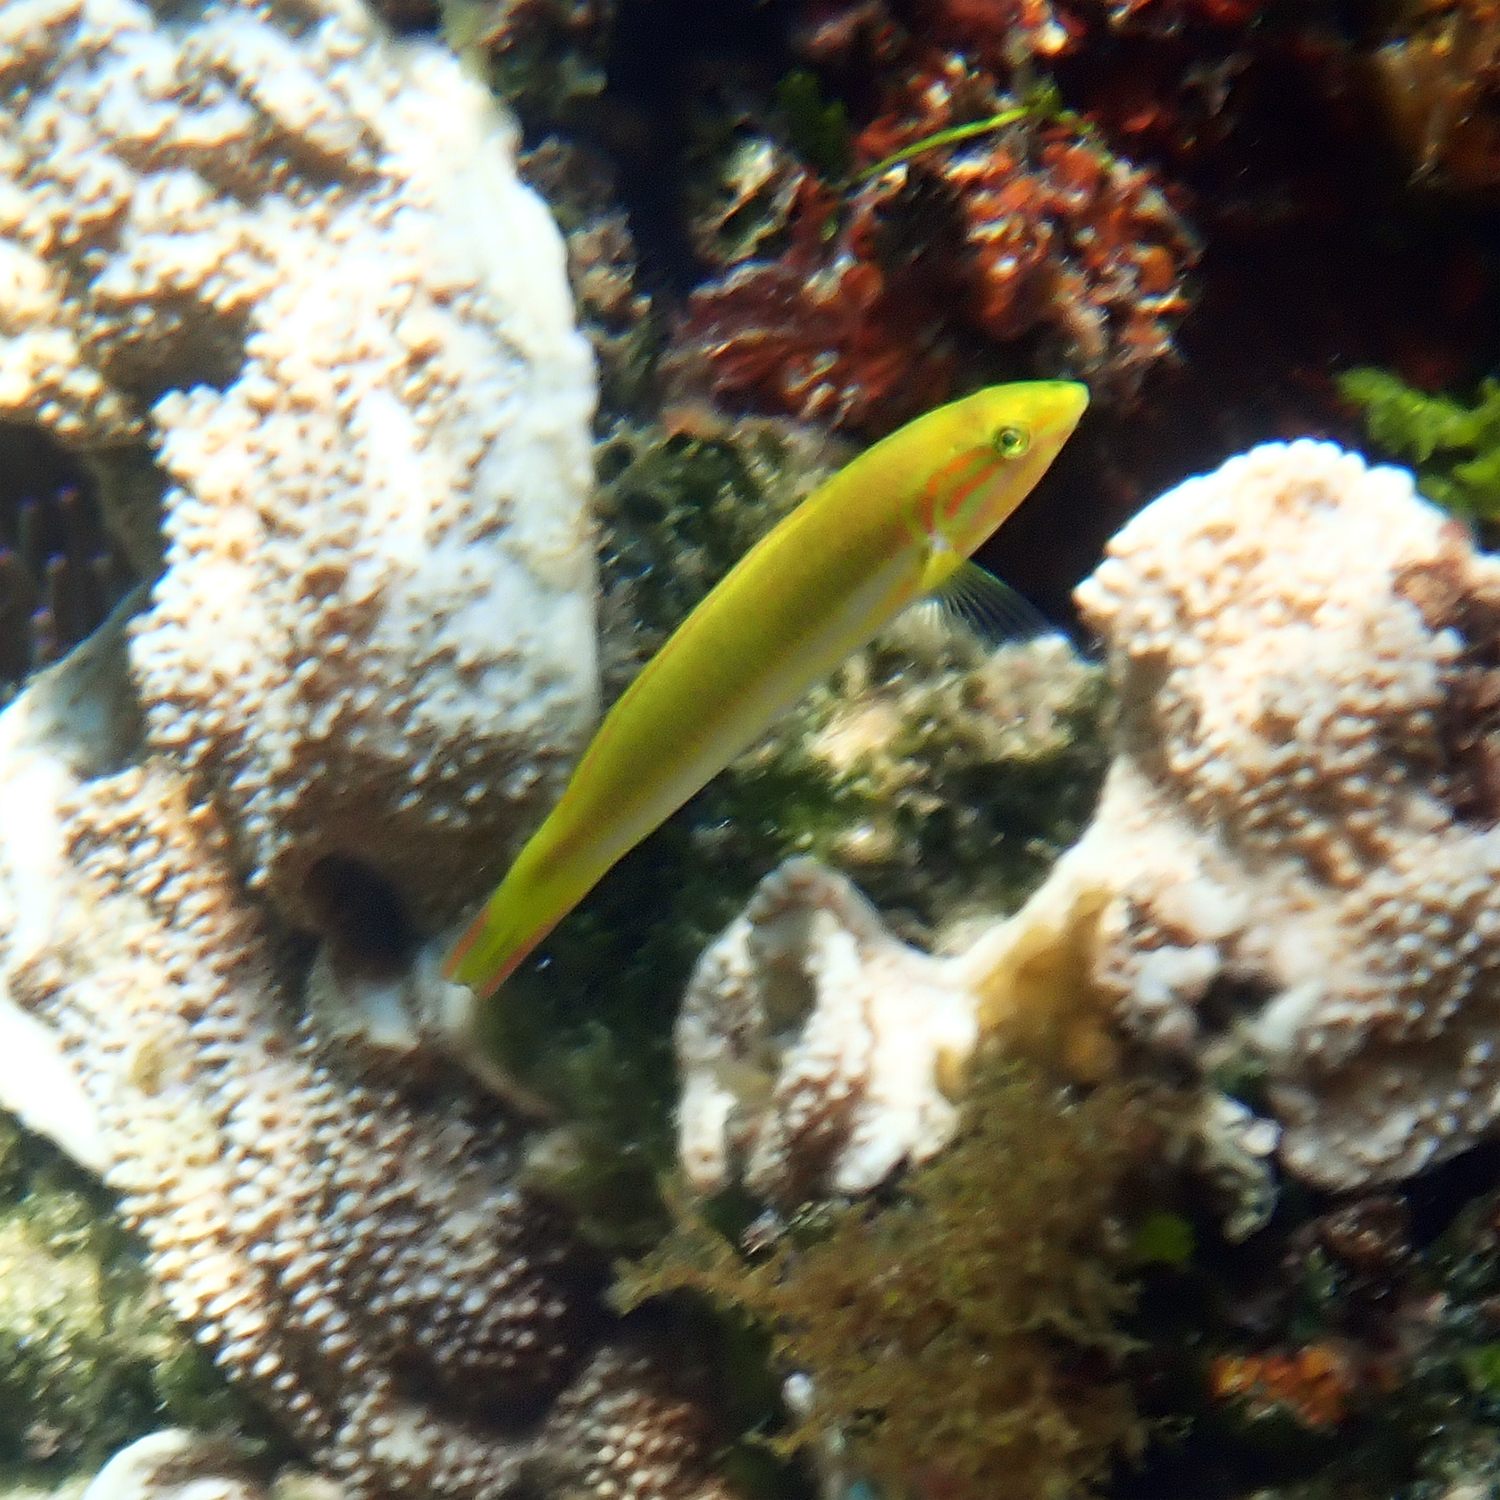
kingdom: Animalia
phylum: Chordata
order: Perciformes
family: Labridae
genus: Thalassoma
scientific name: Thalassoma lutescens
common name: Green moon wrasse
